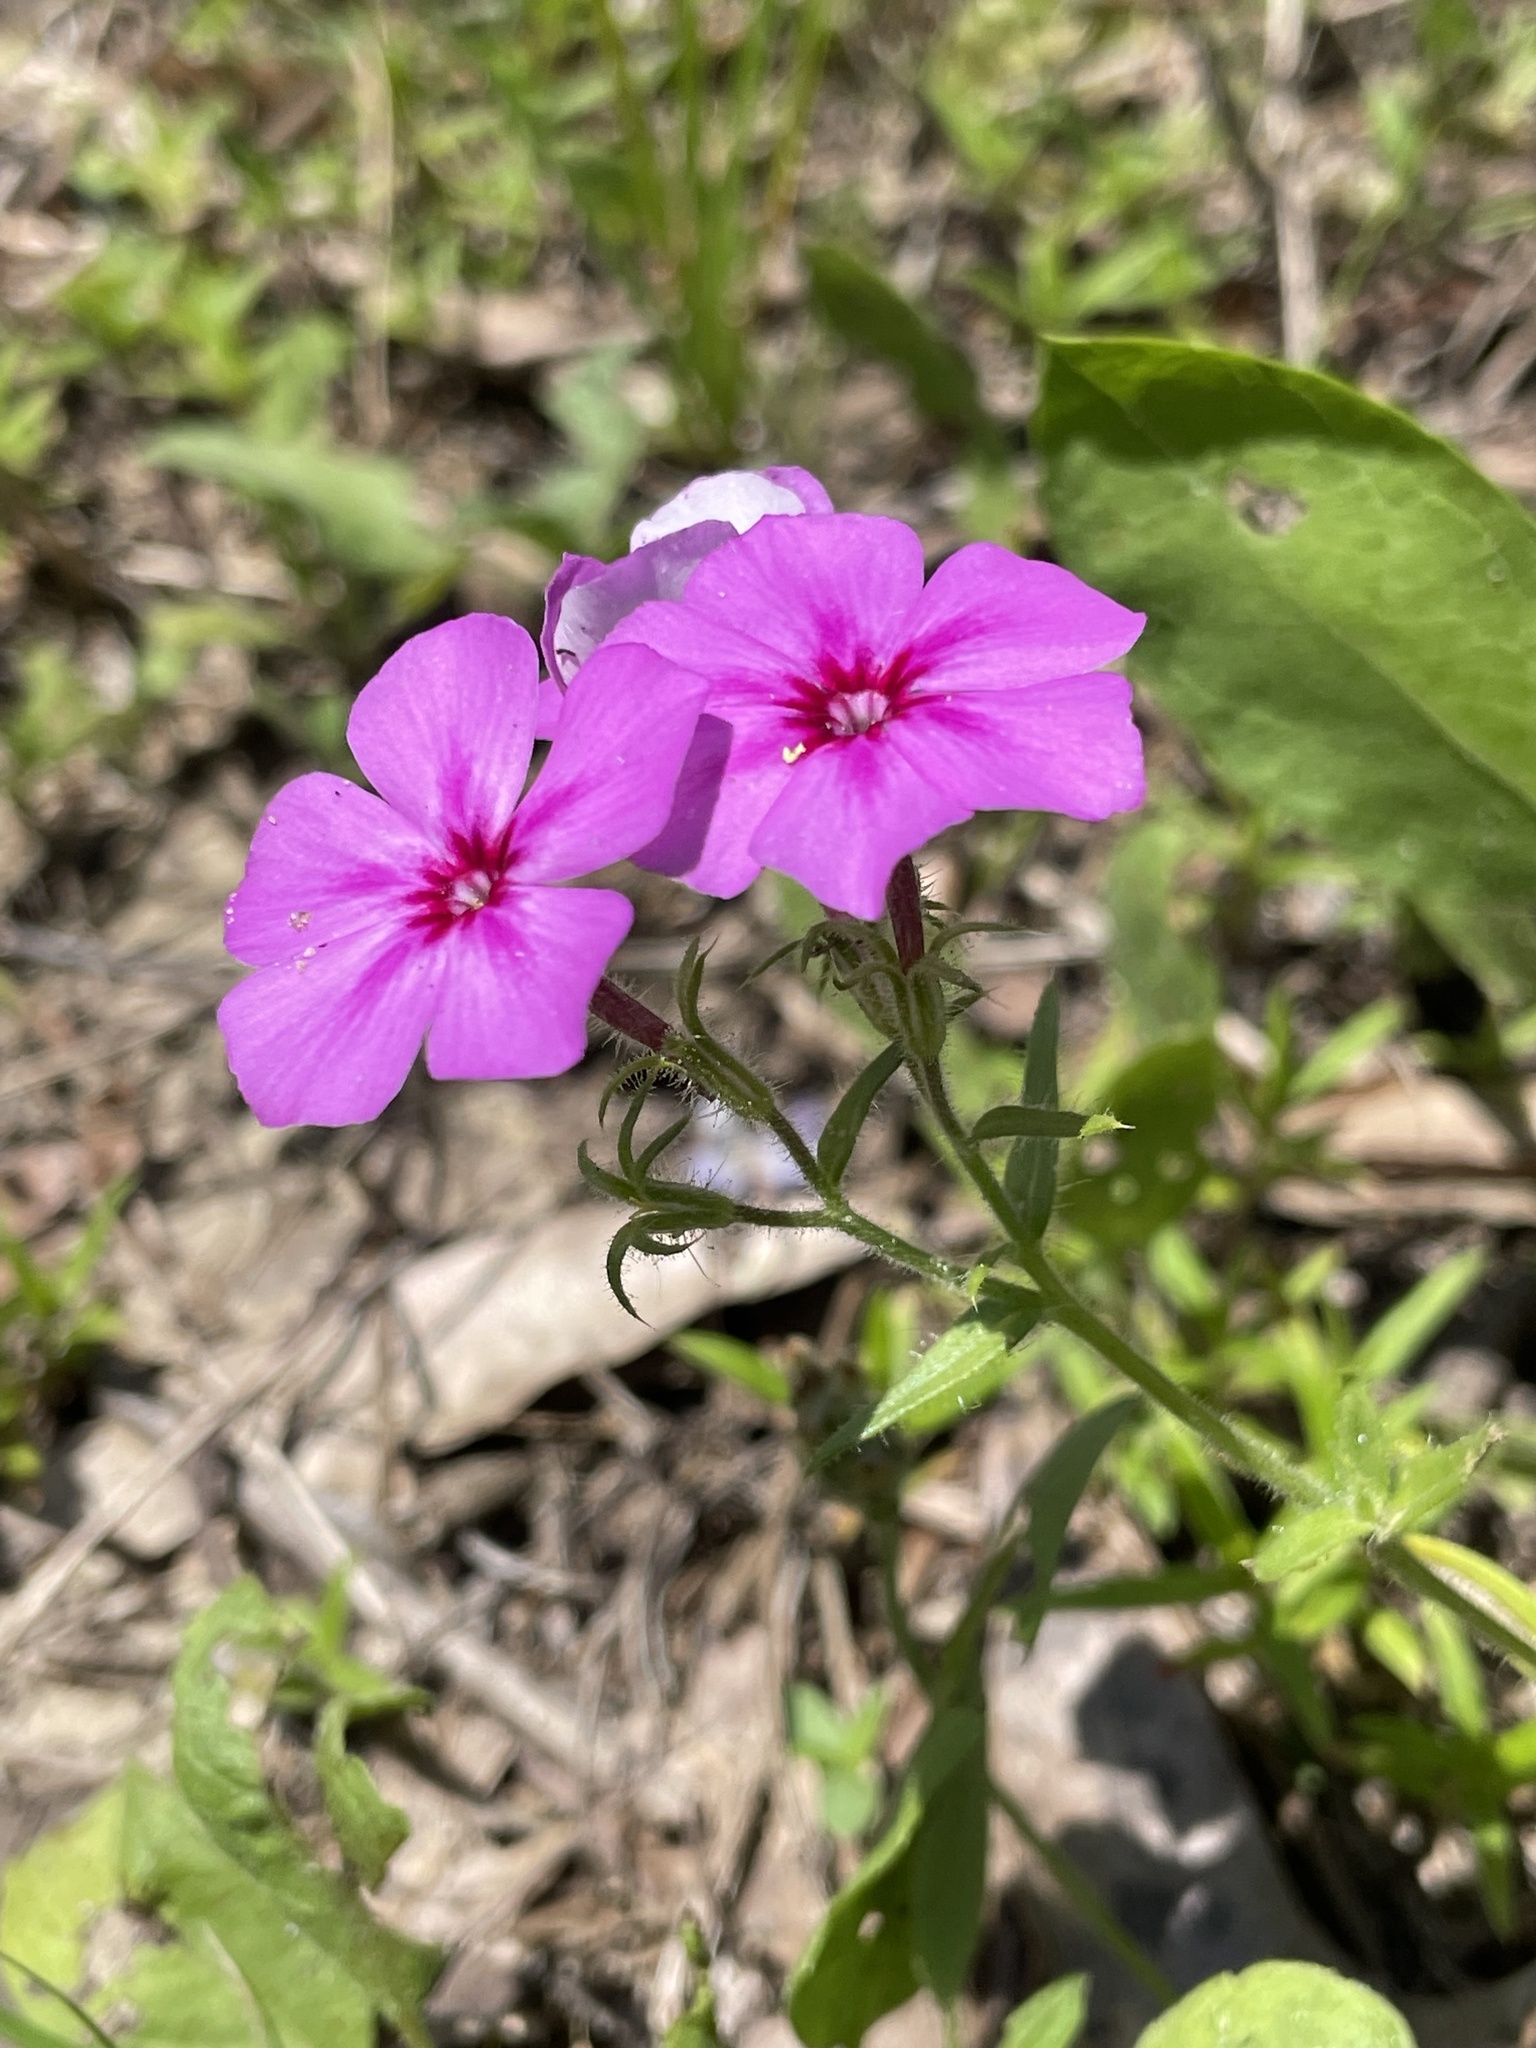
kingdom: Plantae
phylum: Tracheophyta
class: Magnoliopsida
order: Ericales
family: Polemoniaceae
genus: Phlox
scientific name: Phlox drummondii
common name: Drummond's phlox
